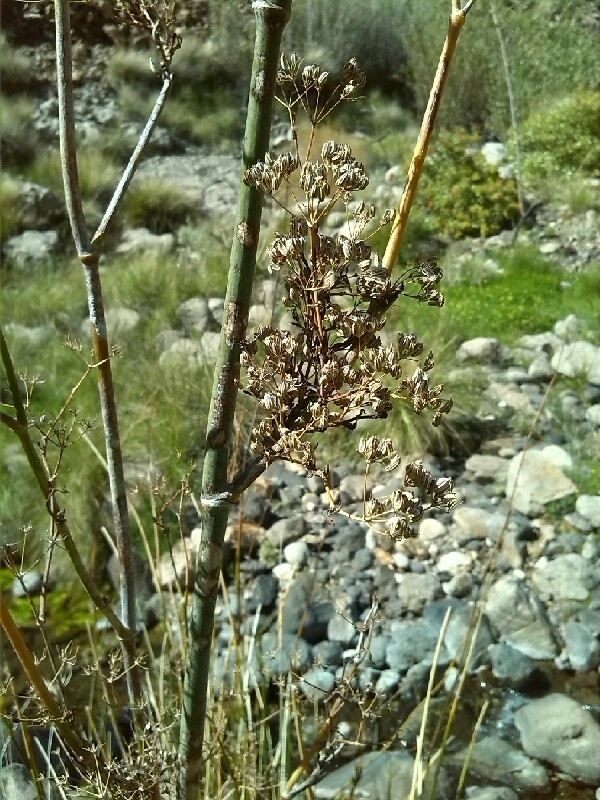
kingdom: Plantae
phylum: Tracheophyta
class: Magnoliopsida
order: Apiales
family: Apiaceae
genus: Foeniculum
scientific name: Foeniculum vulgare
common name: Fennel
